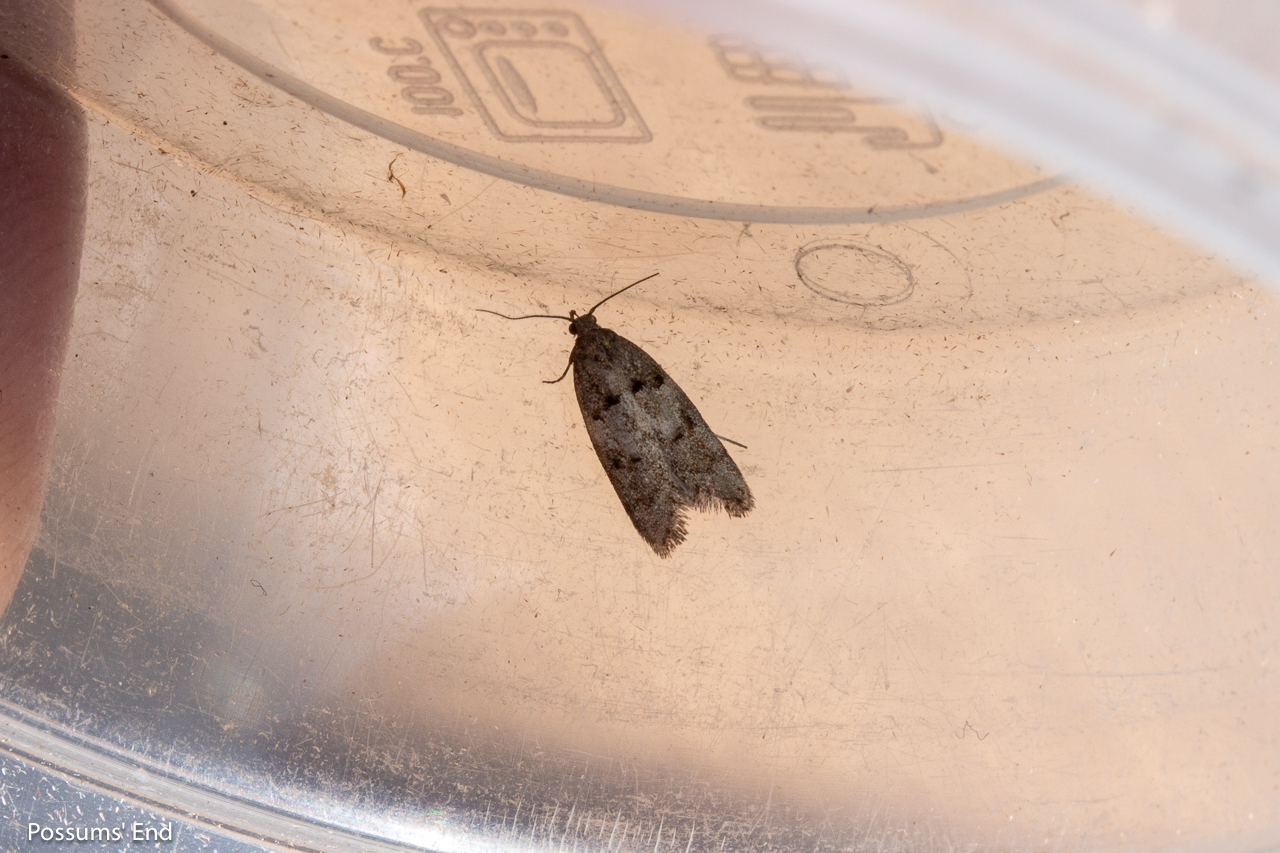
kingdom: Animalia
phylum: Arthropoda
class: Insecta
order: Lepidoptera
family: Oecophoridae
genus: Trachypepla
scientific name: Trachypepla contritella
